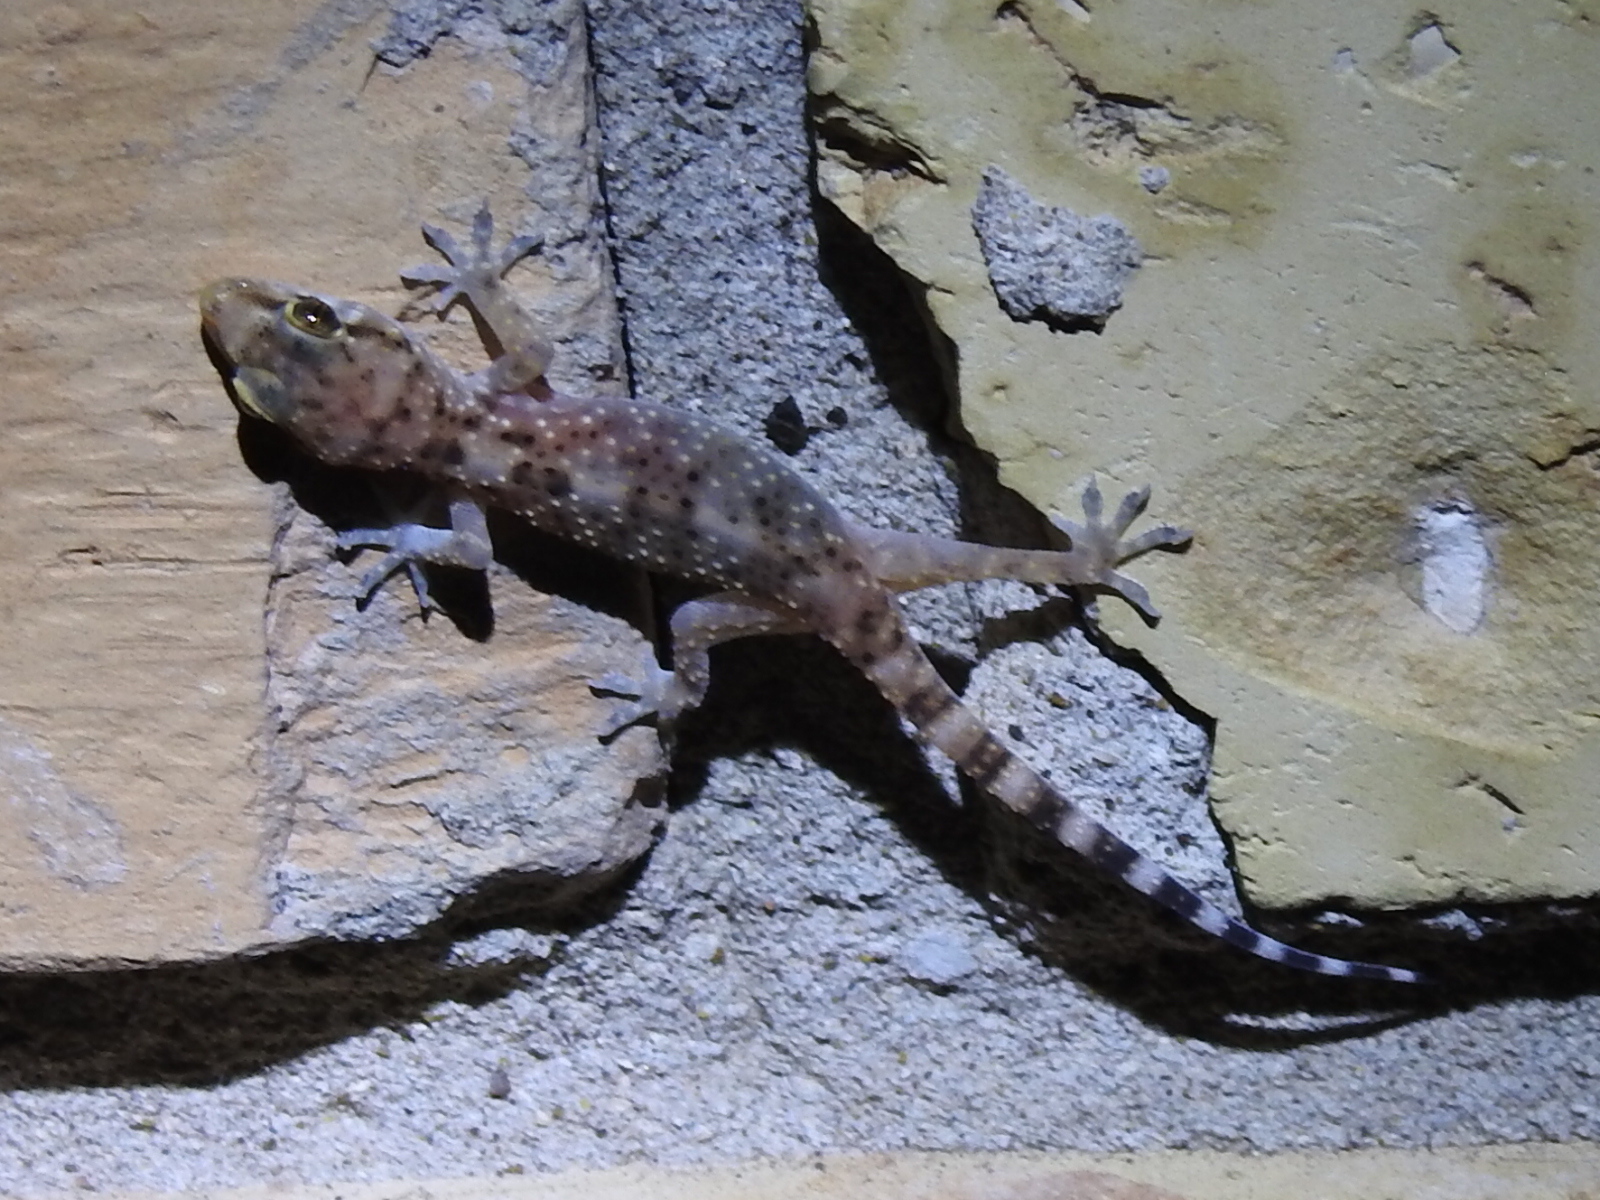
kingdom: Animalia
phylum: Chordata
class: Squamata
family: Gekkonidae
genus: Hemidactylus
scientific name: Hemidactylus turcicus
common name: Turkish gecko
